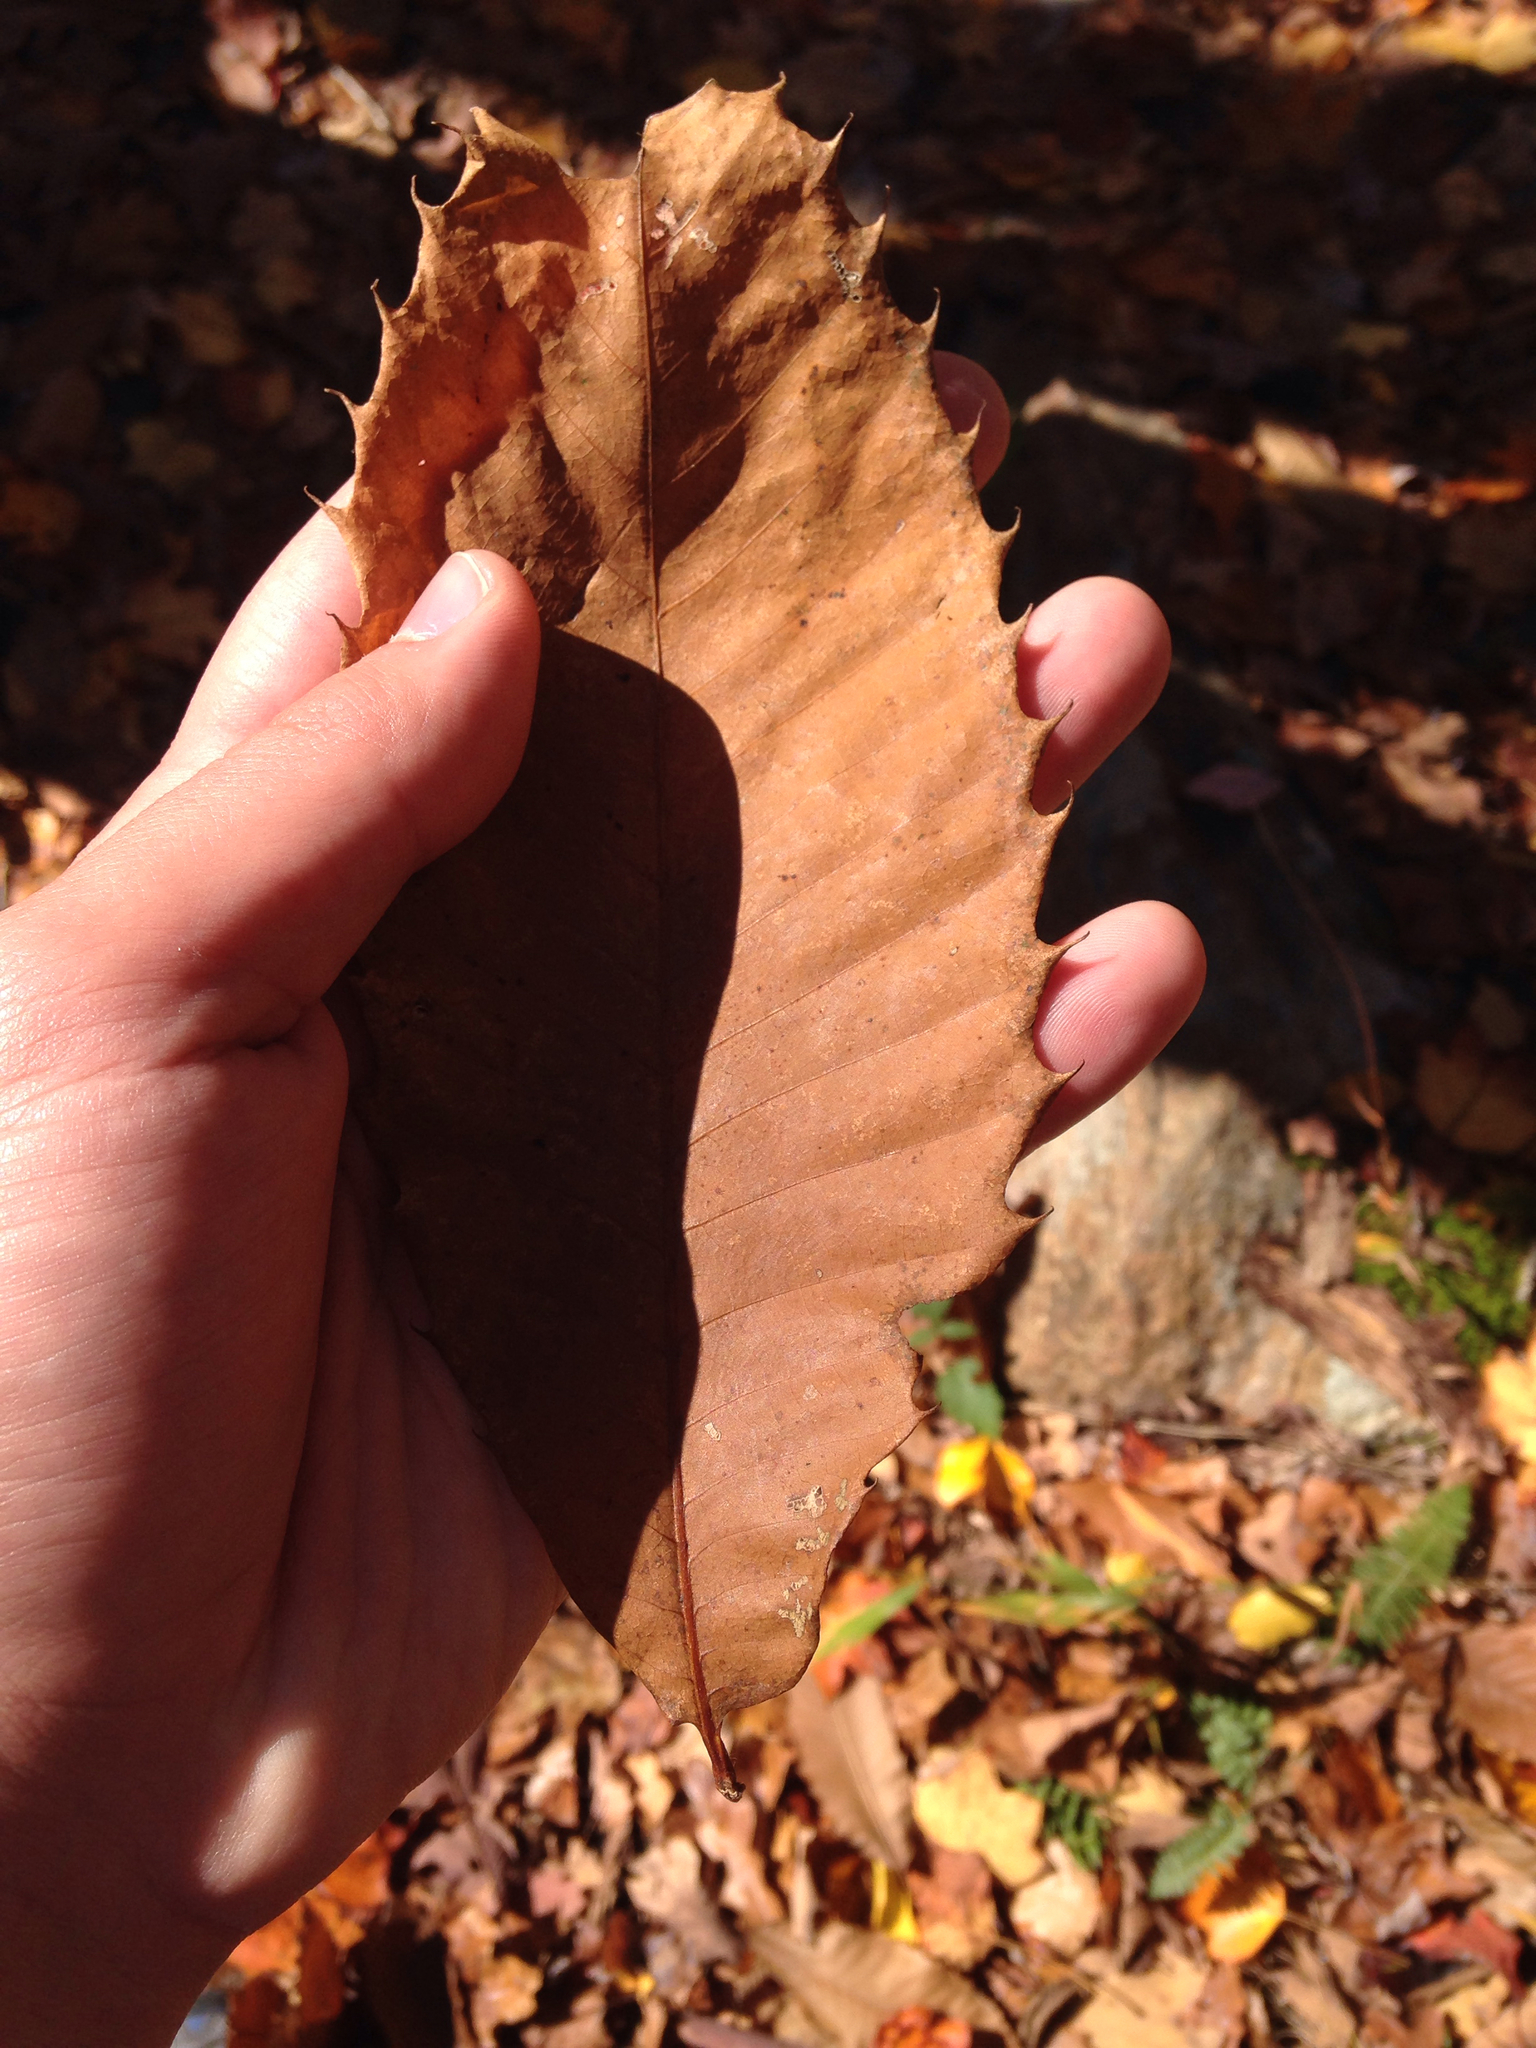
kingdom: Plantae
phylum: Tracheophyta
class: Magnoliopsida
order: Fagales
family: Fagaceae
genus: Castanea
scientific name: Castanea dentata
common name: American chestnut
